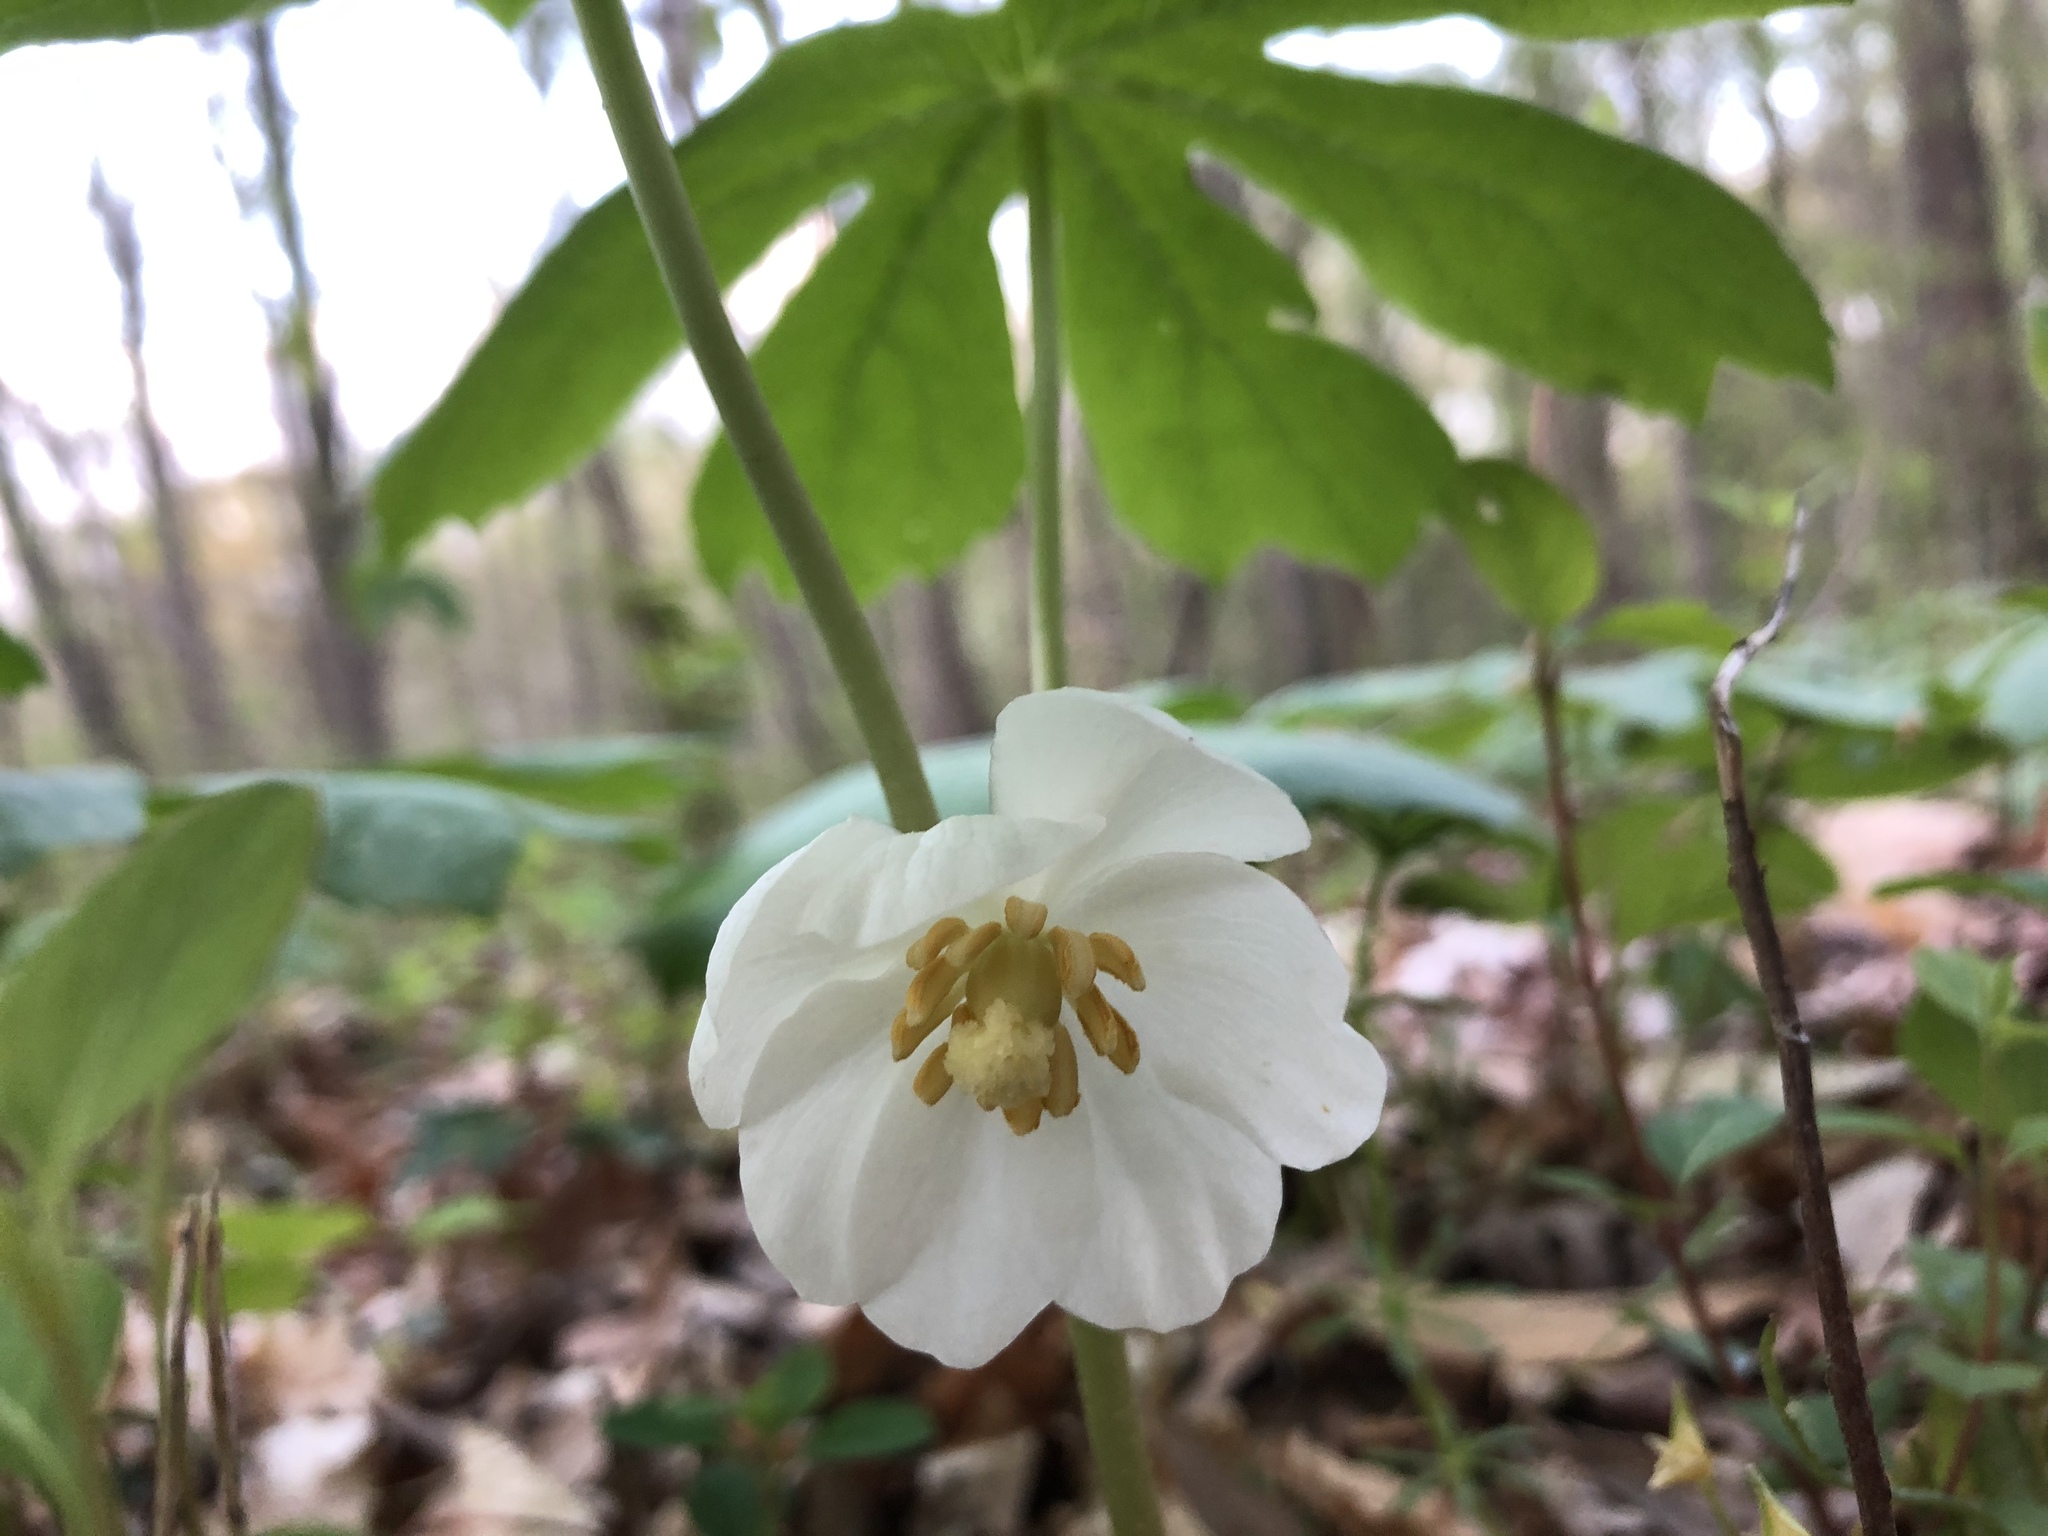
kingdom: Plantae
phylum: Tracheophyta
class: Magnoliopsida
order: Ranunculales
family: Berberidaceae
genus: Podophyllum
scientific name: Podophyllum peltatum
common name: Wild mandrake
